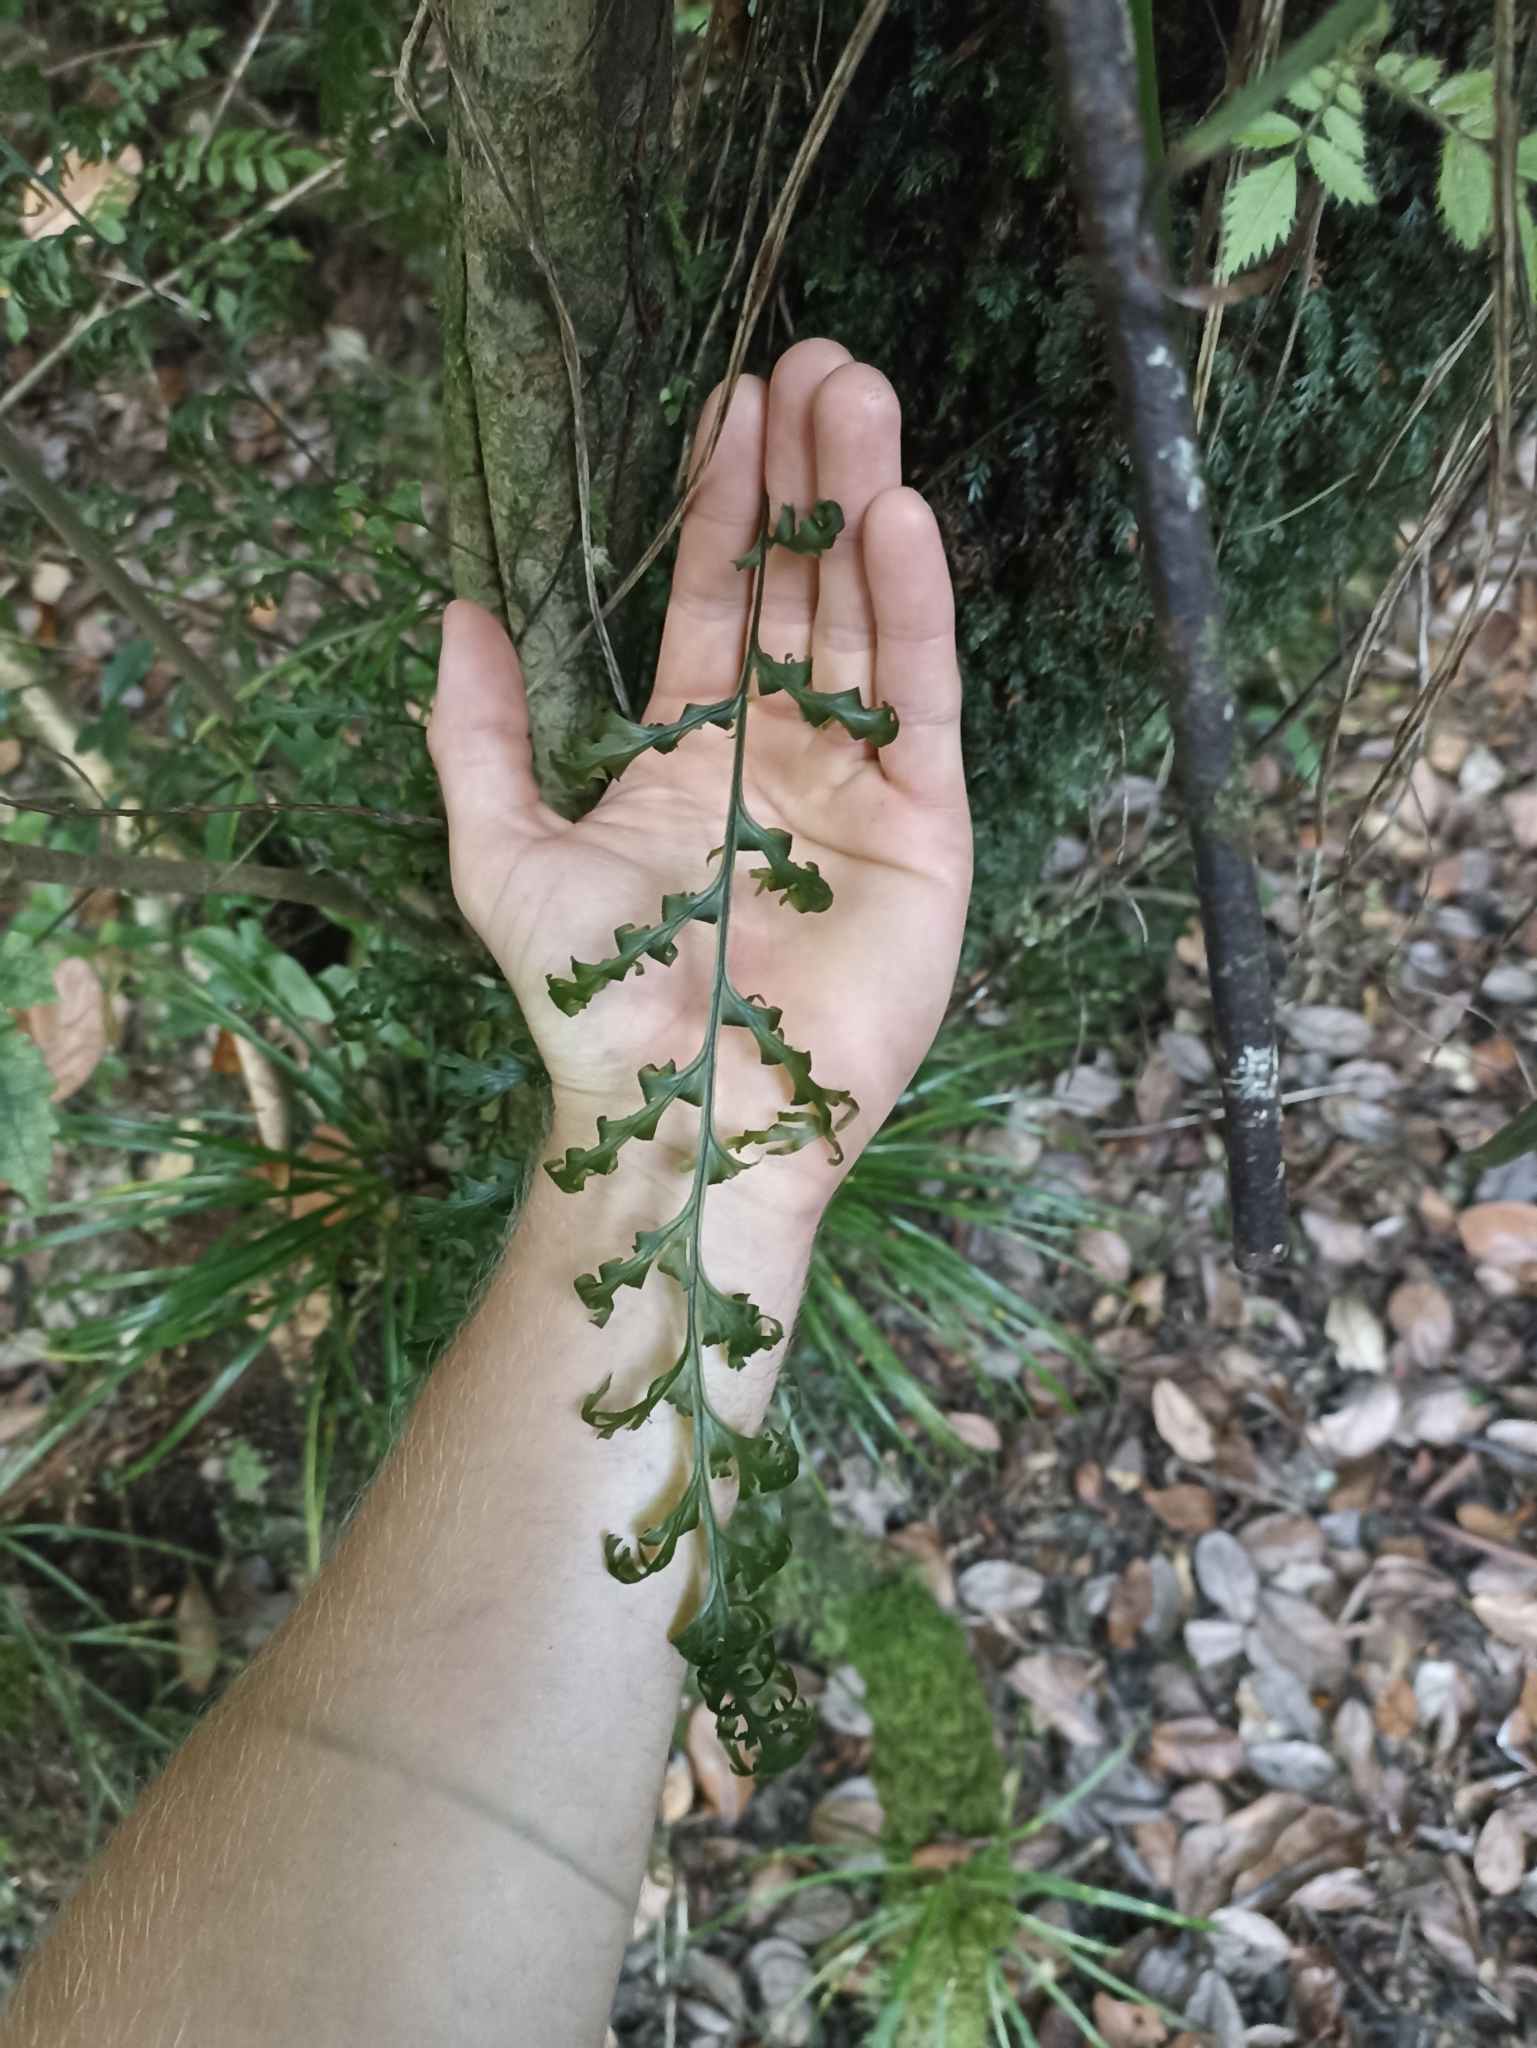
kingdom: Plantae
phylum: Tracheophyta
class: Polypodiopsida
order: Hymenophyllales
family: Hymenophyllaceae
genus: Hymenophyllum
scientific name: Hymenophyllum dilatatum
